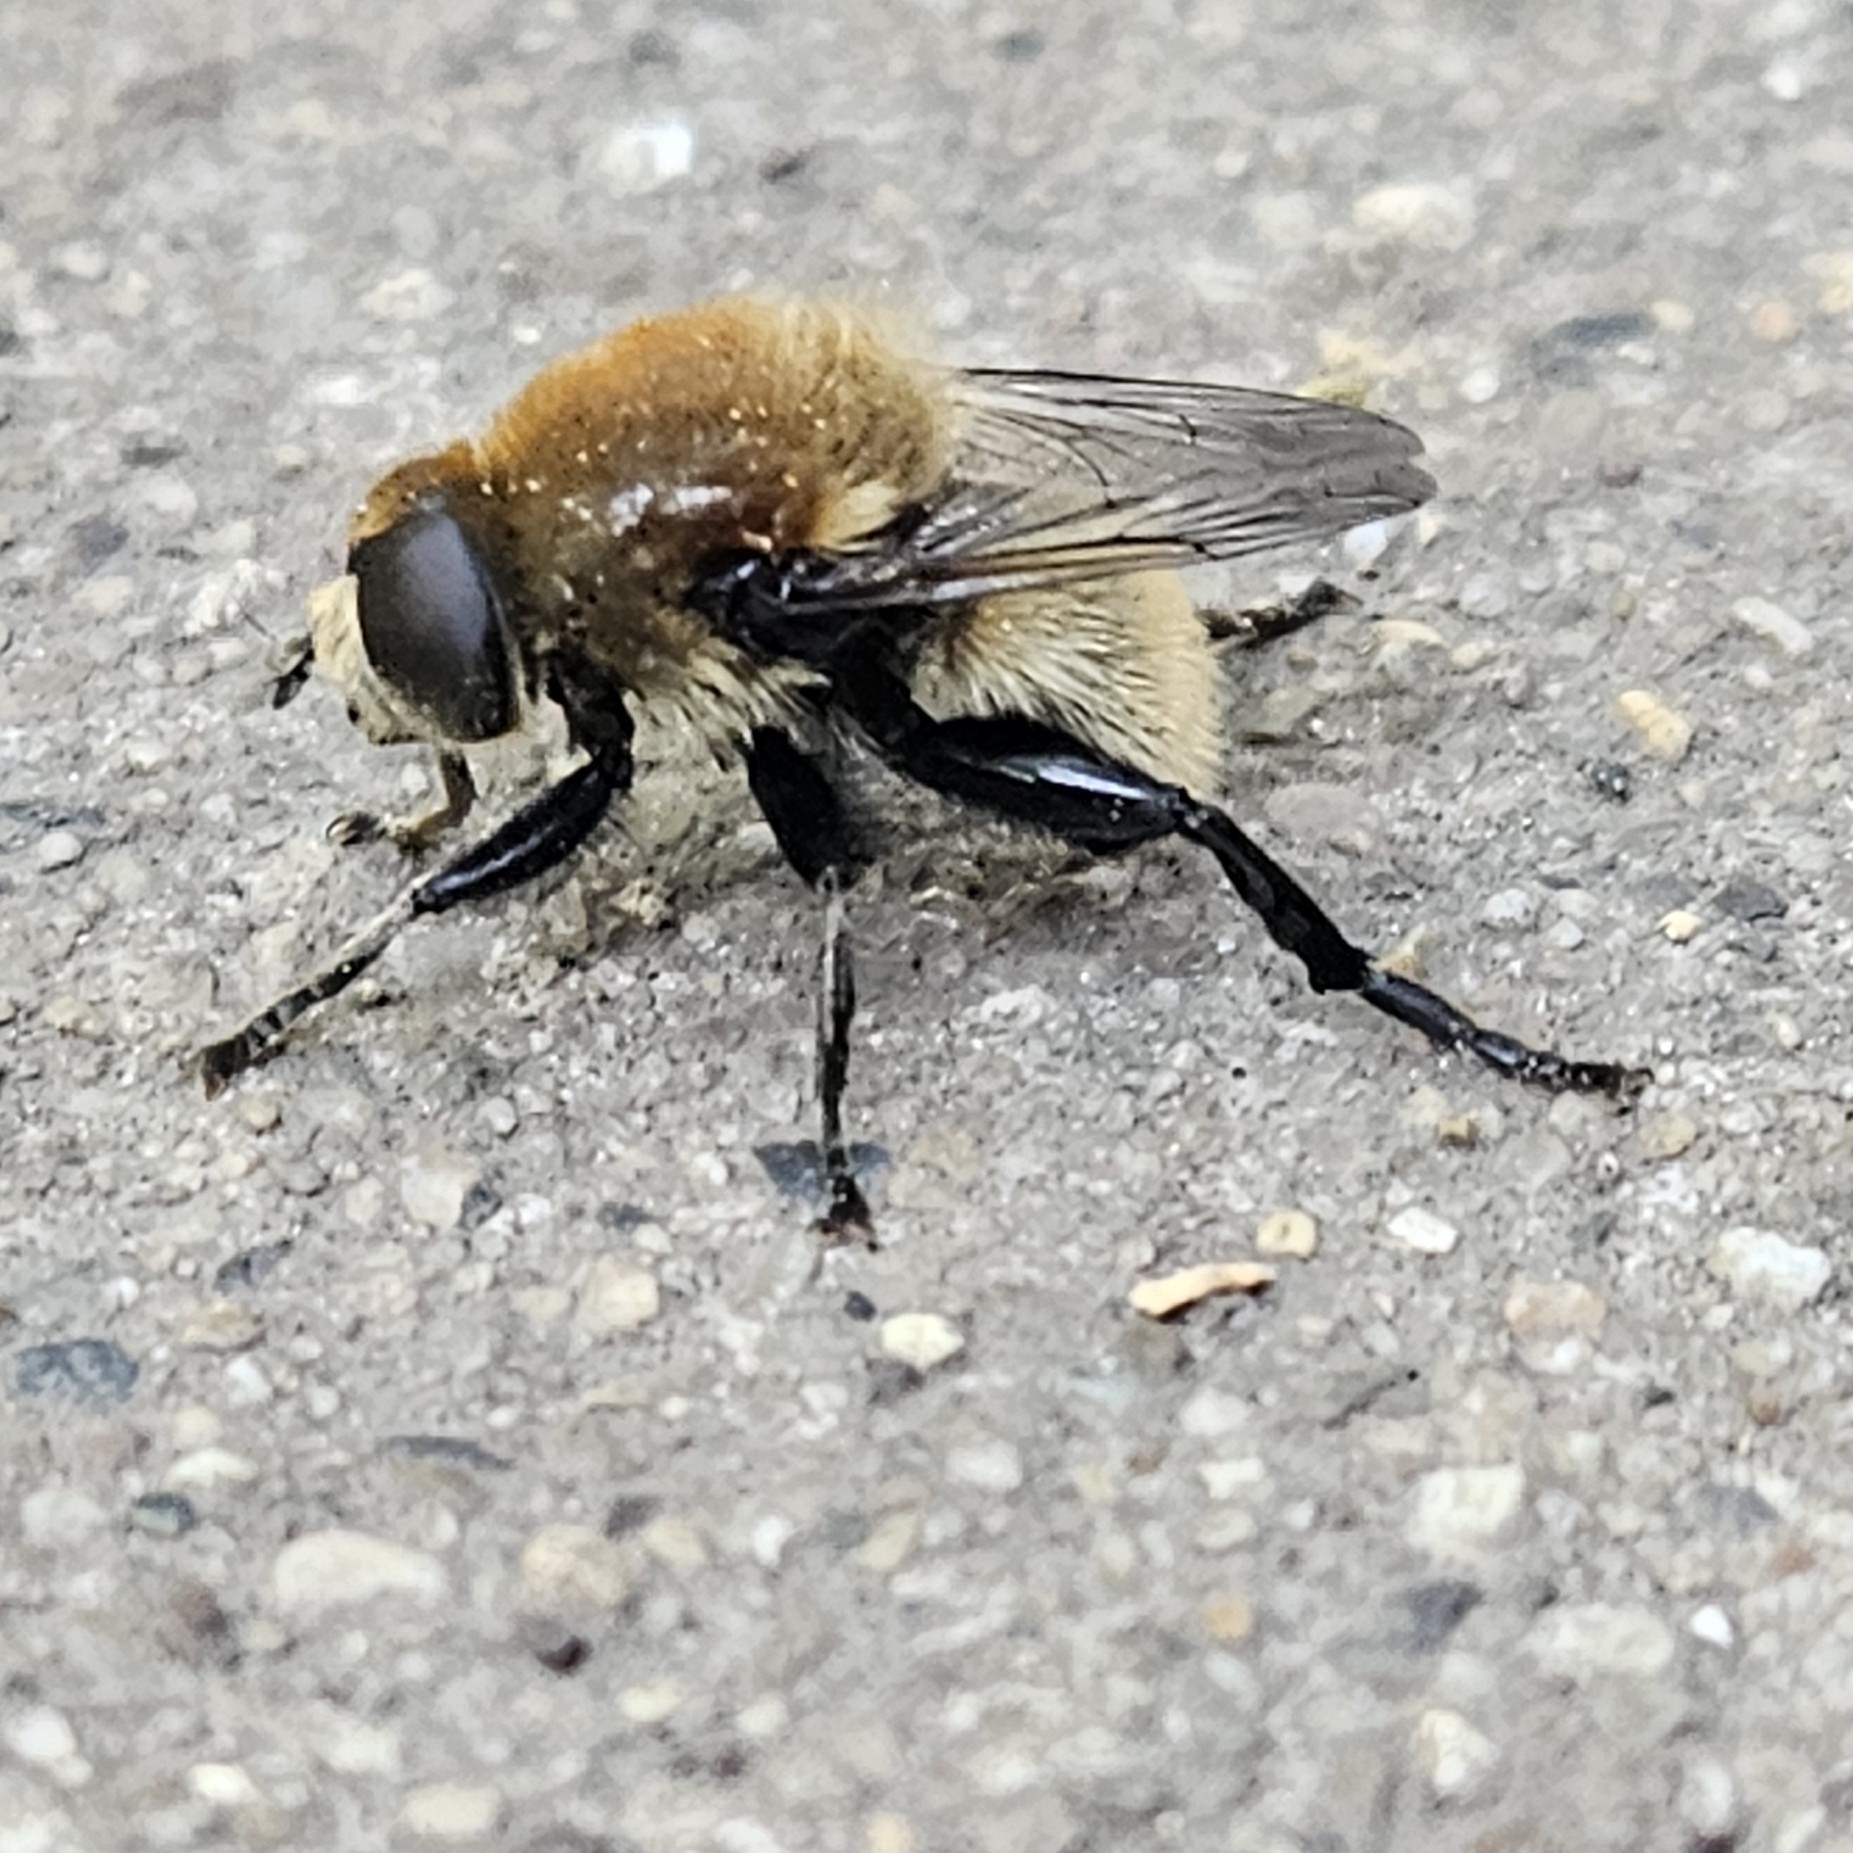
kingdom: Animalia
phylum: Arthropoda
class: Insecta
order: Diptera
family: Syrphidae
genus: Merodon
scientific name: Merodon equestris
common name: Greater bulb-fly
